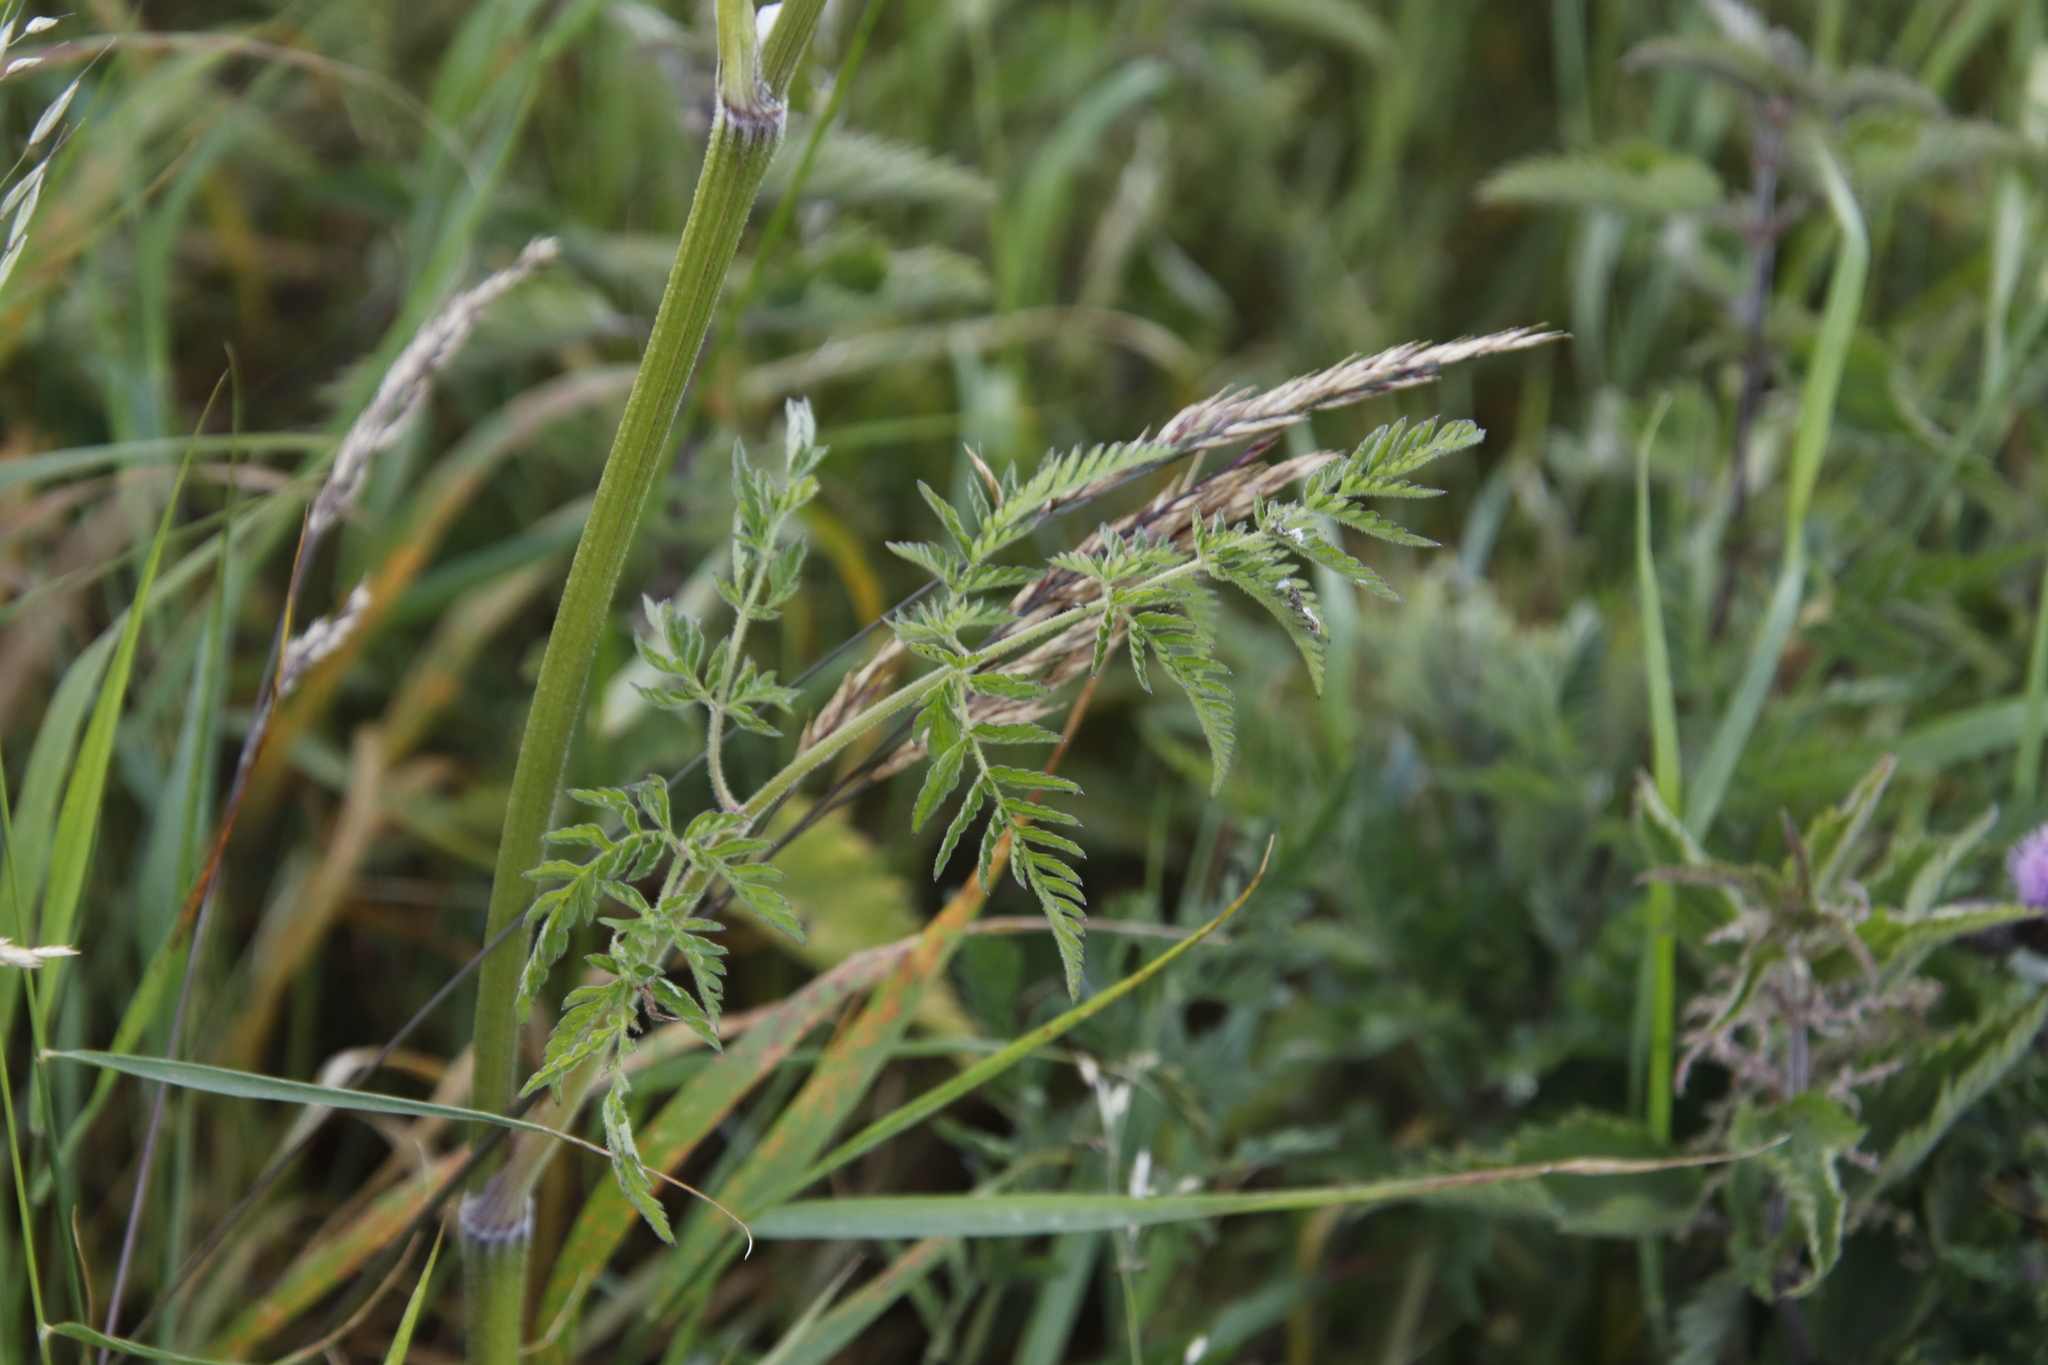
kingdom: Plantae
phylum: Tracheophyta
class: Magnoliopsida
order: Apiales
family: Apiaceae
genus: Anthriscus
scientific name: Anthriscus sylvestris
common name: Cow parsley
